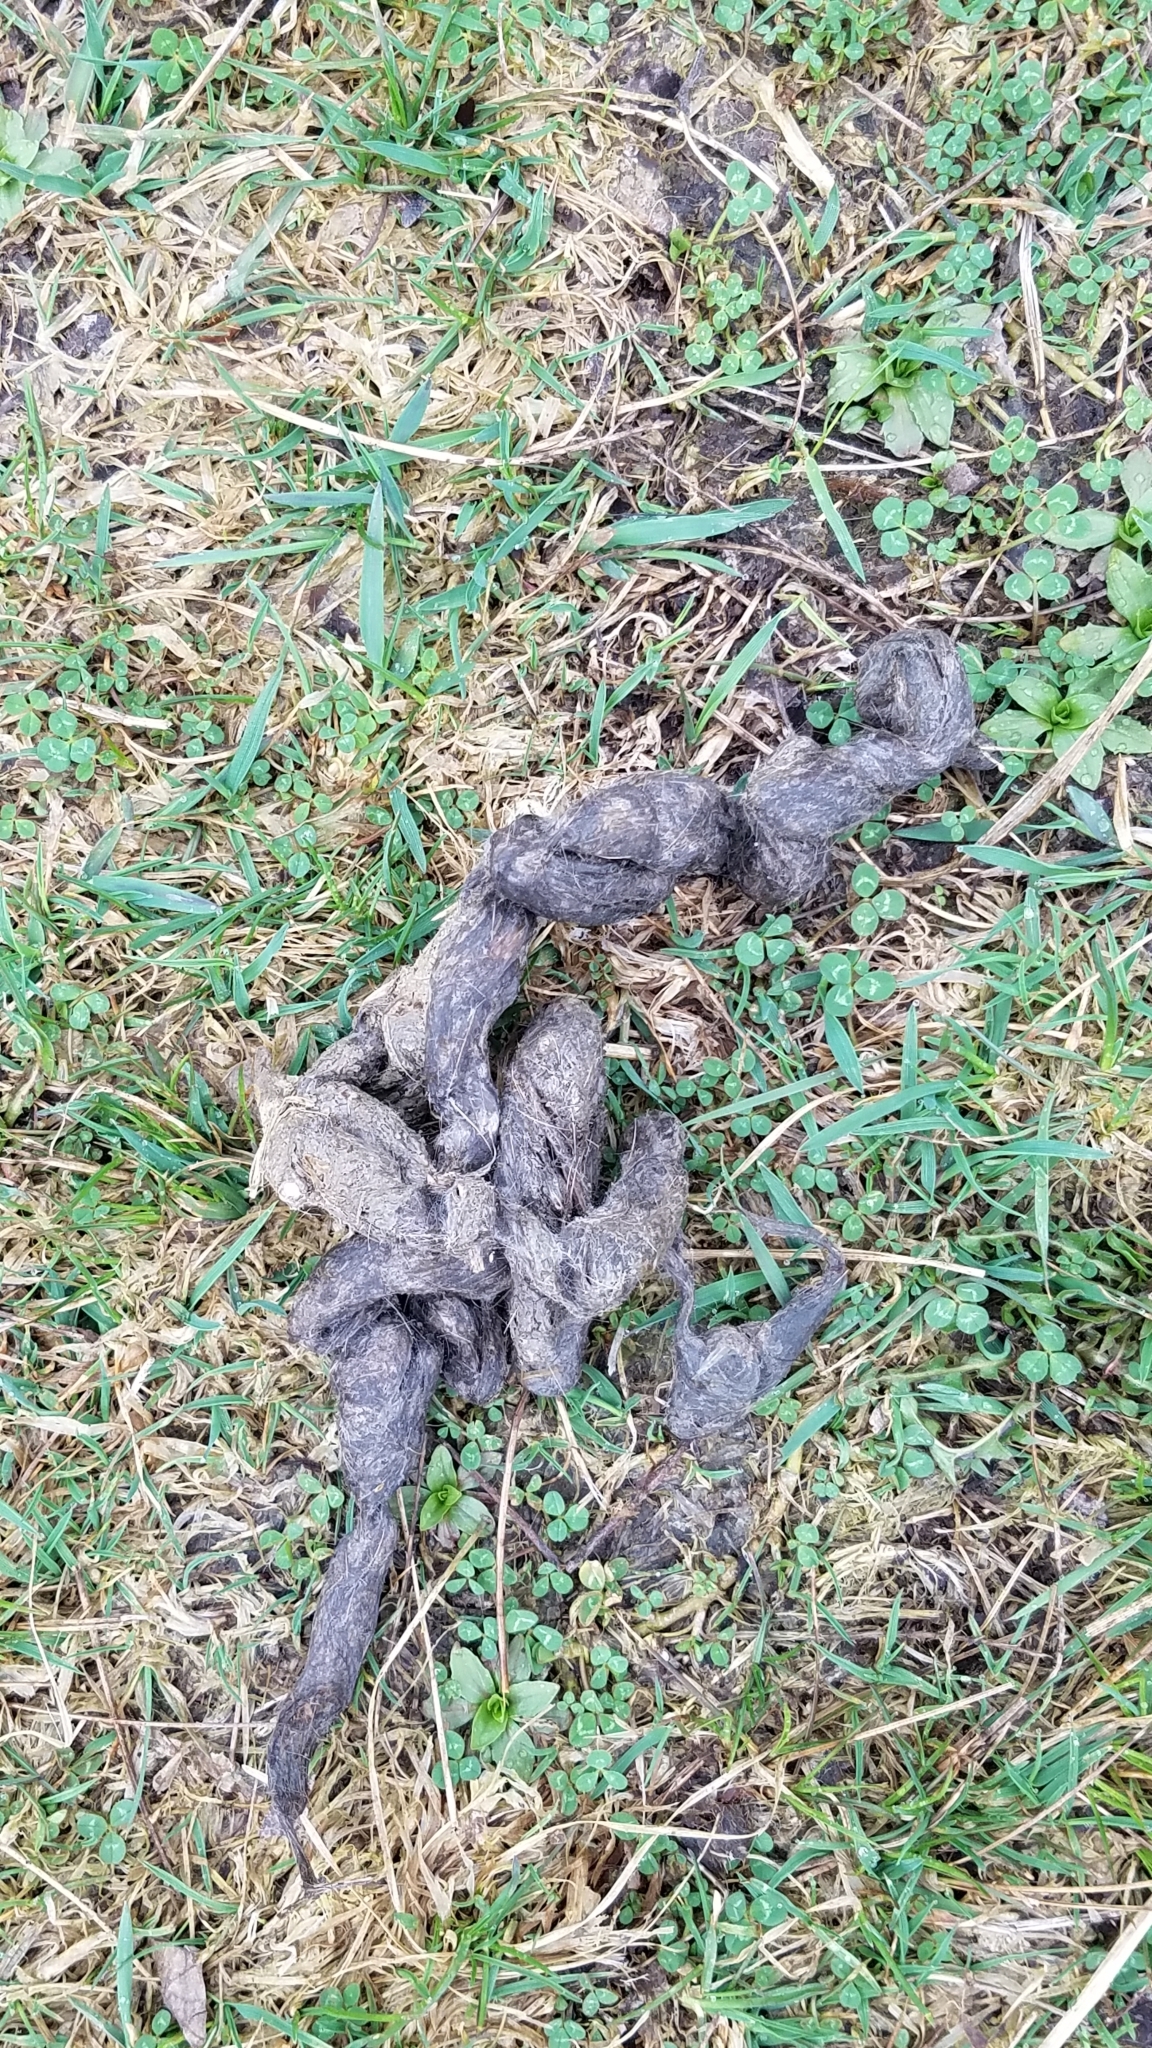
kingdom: Animalia
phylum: Chordata
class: Mammalia
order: Carnivora
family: Canidae
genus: Canis
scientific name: Canis latrans
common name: Coyote
